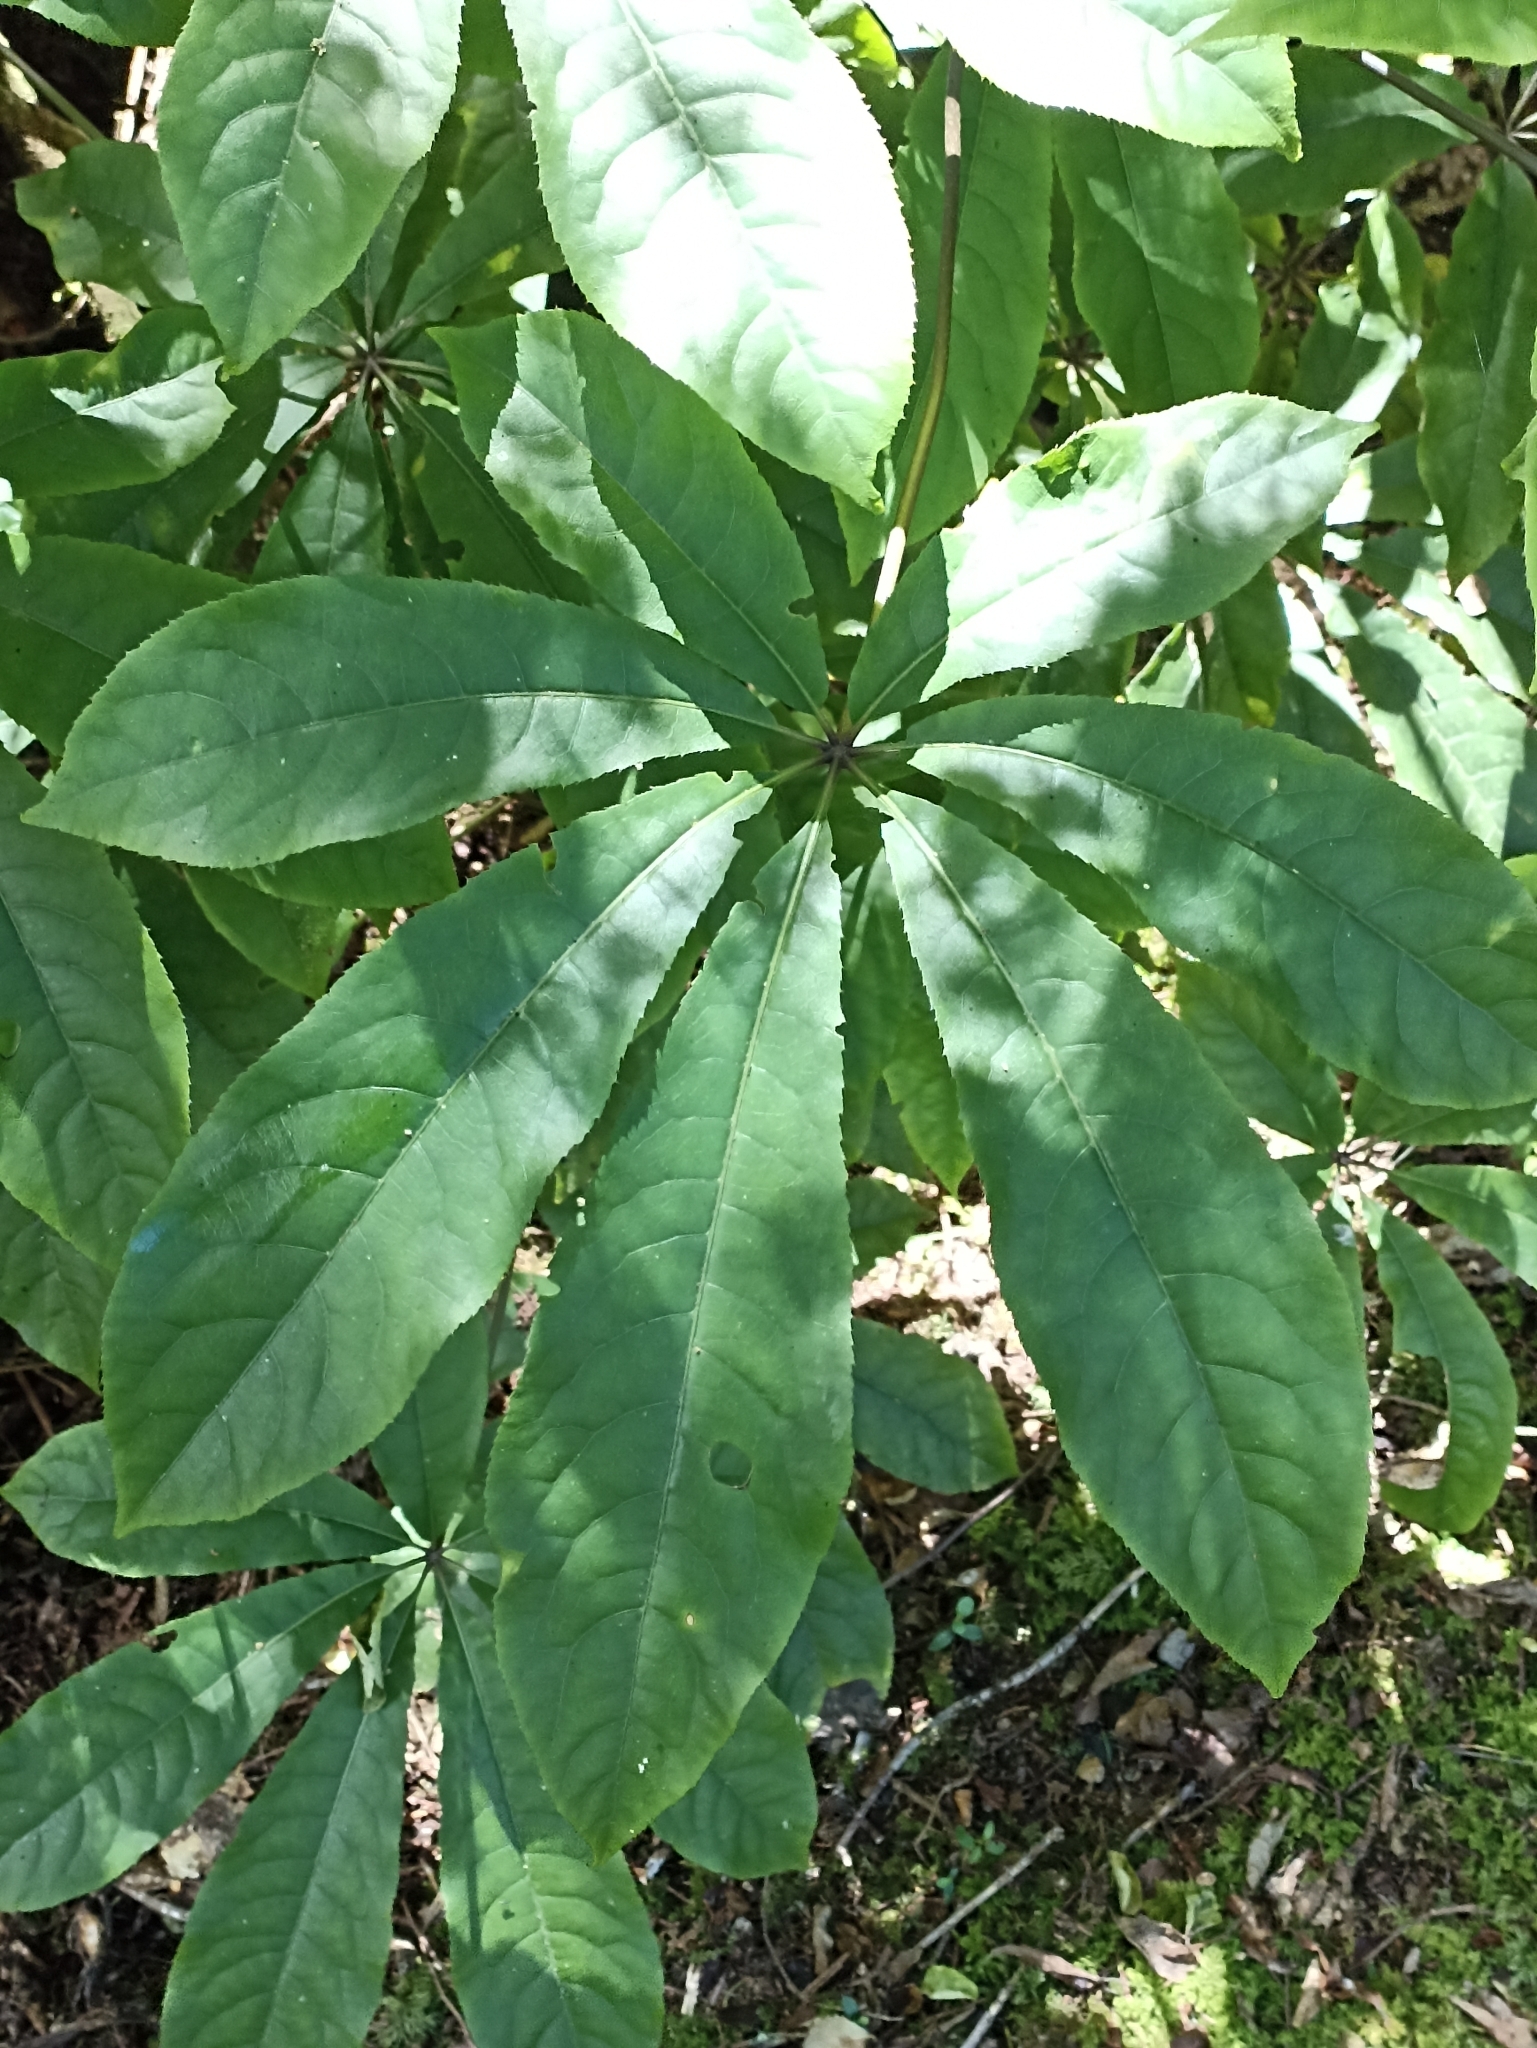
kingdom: Plantae
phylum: Tracheophyta
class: Magnoliopsida
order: Apiales
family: Araliaceae
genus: Schefflera
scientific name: Schefflera digitata
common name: Pate
